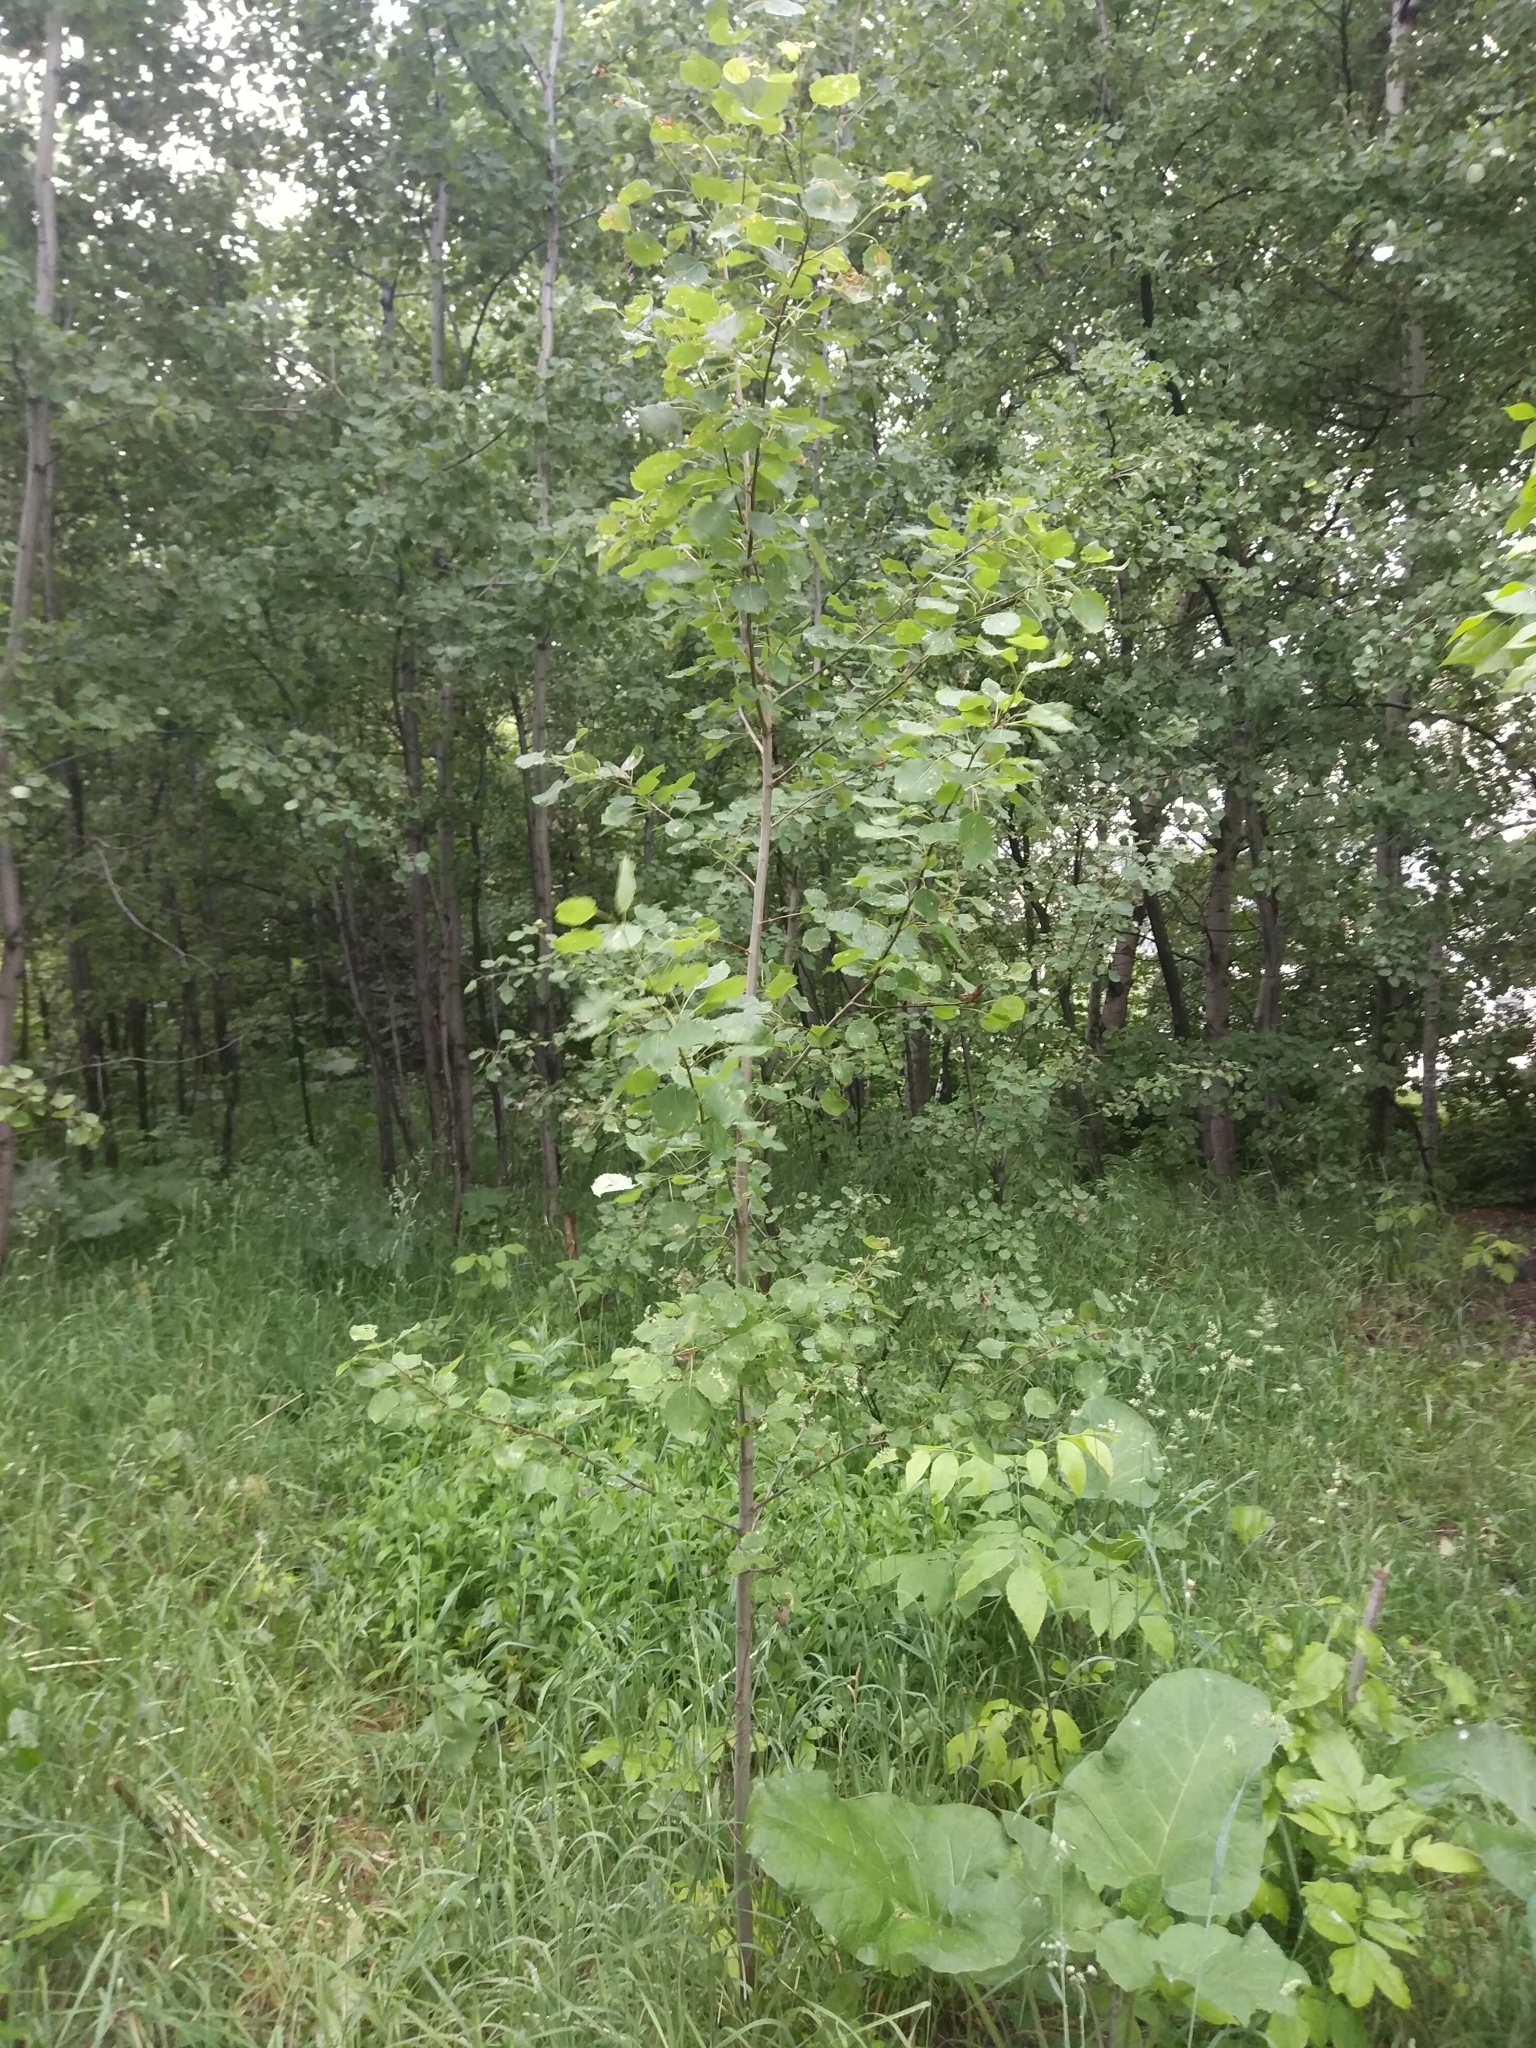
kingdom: Plantae
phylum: Tracheophyta
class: Magnoliopsida
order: Malpighiales
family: Salicaceae
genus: Populus
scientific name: Populus tremula
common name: European aspen
